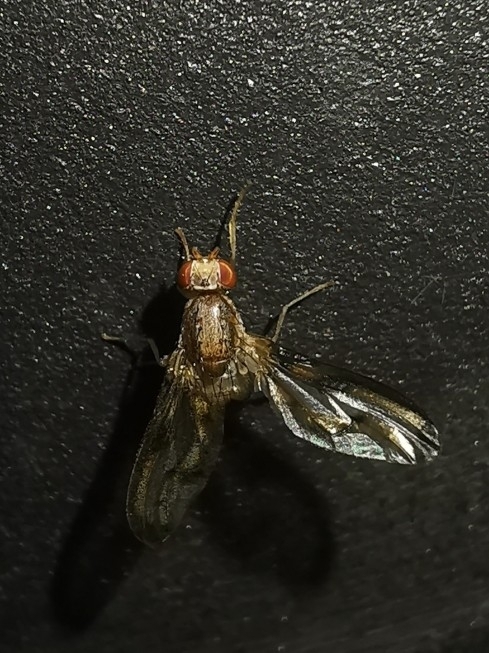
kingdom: Animalia
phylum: Arthropoda
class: Insecta
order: Diptera
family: Pallopteridae
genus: Toxonevra
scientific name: Toxonevra muliebris
